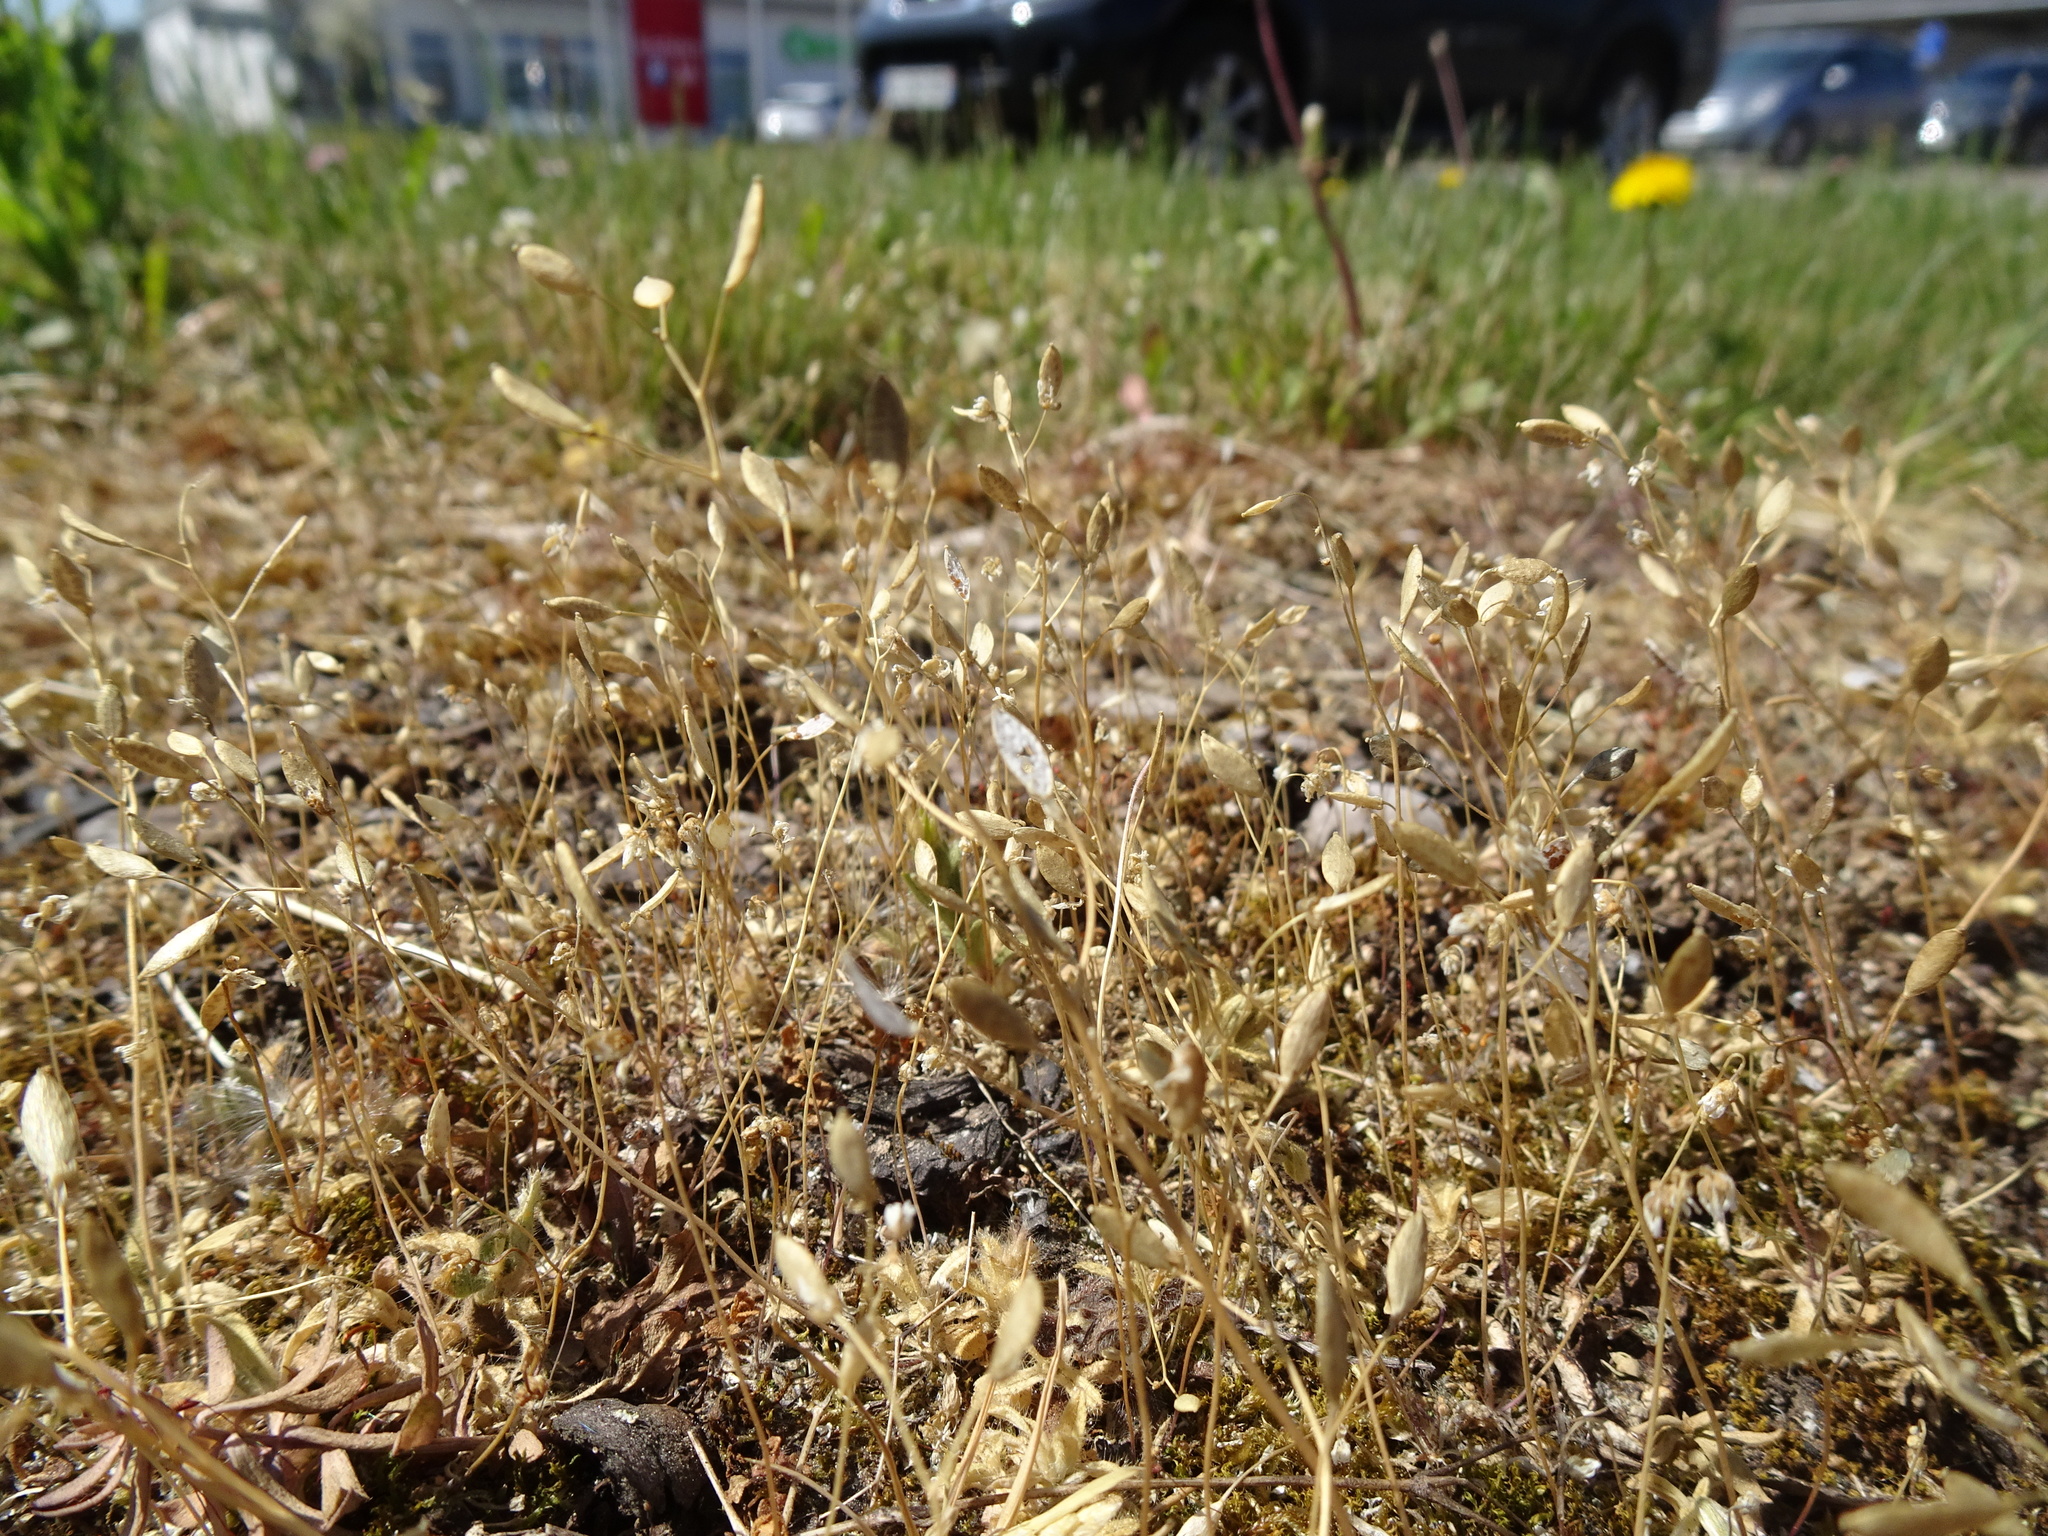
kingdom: Plantae
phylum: Tracheophyta
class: Magnoliopsida
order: Brassicales
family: Brassicaceae
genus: Draba
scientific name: Draba verna
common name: Spring draba
